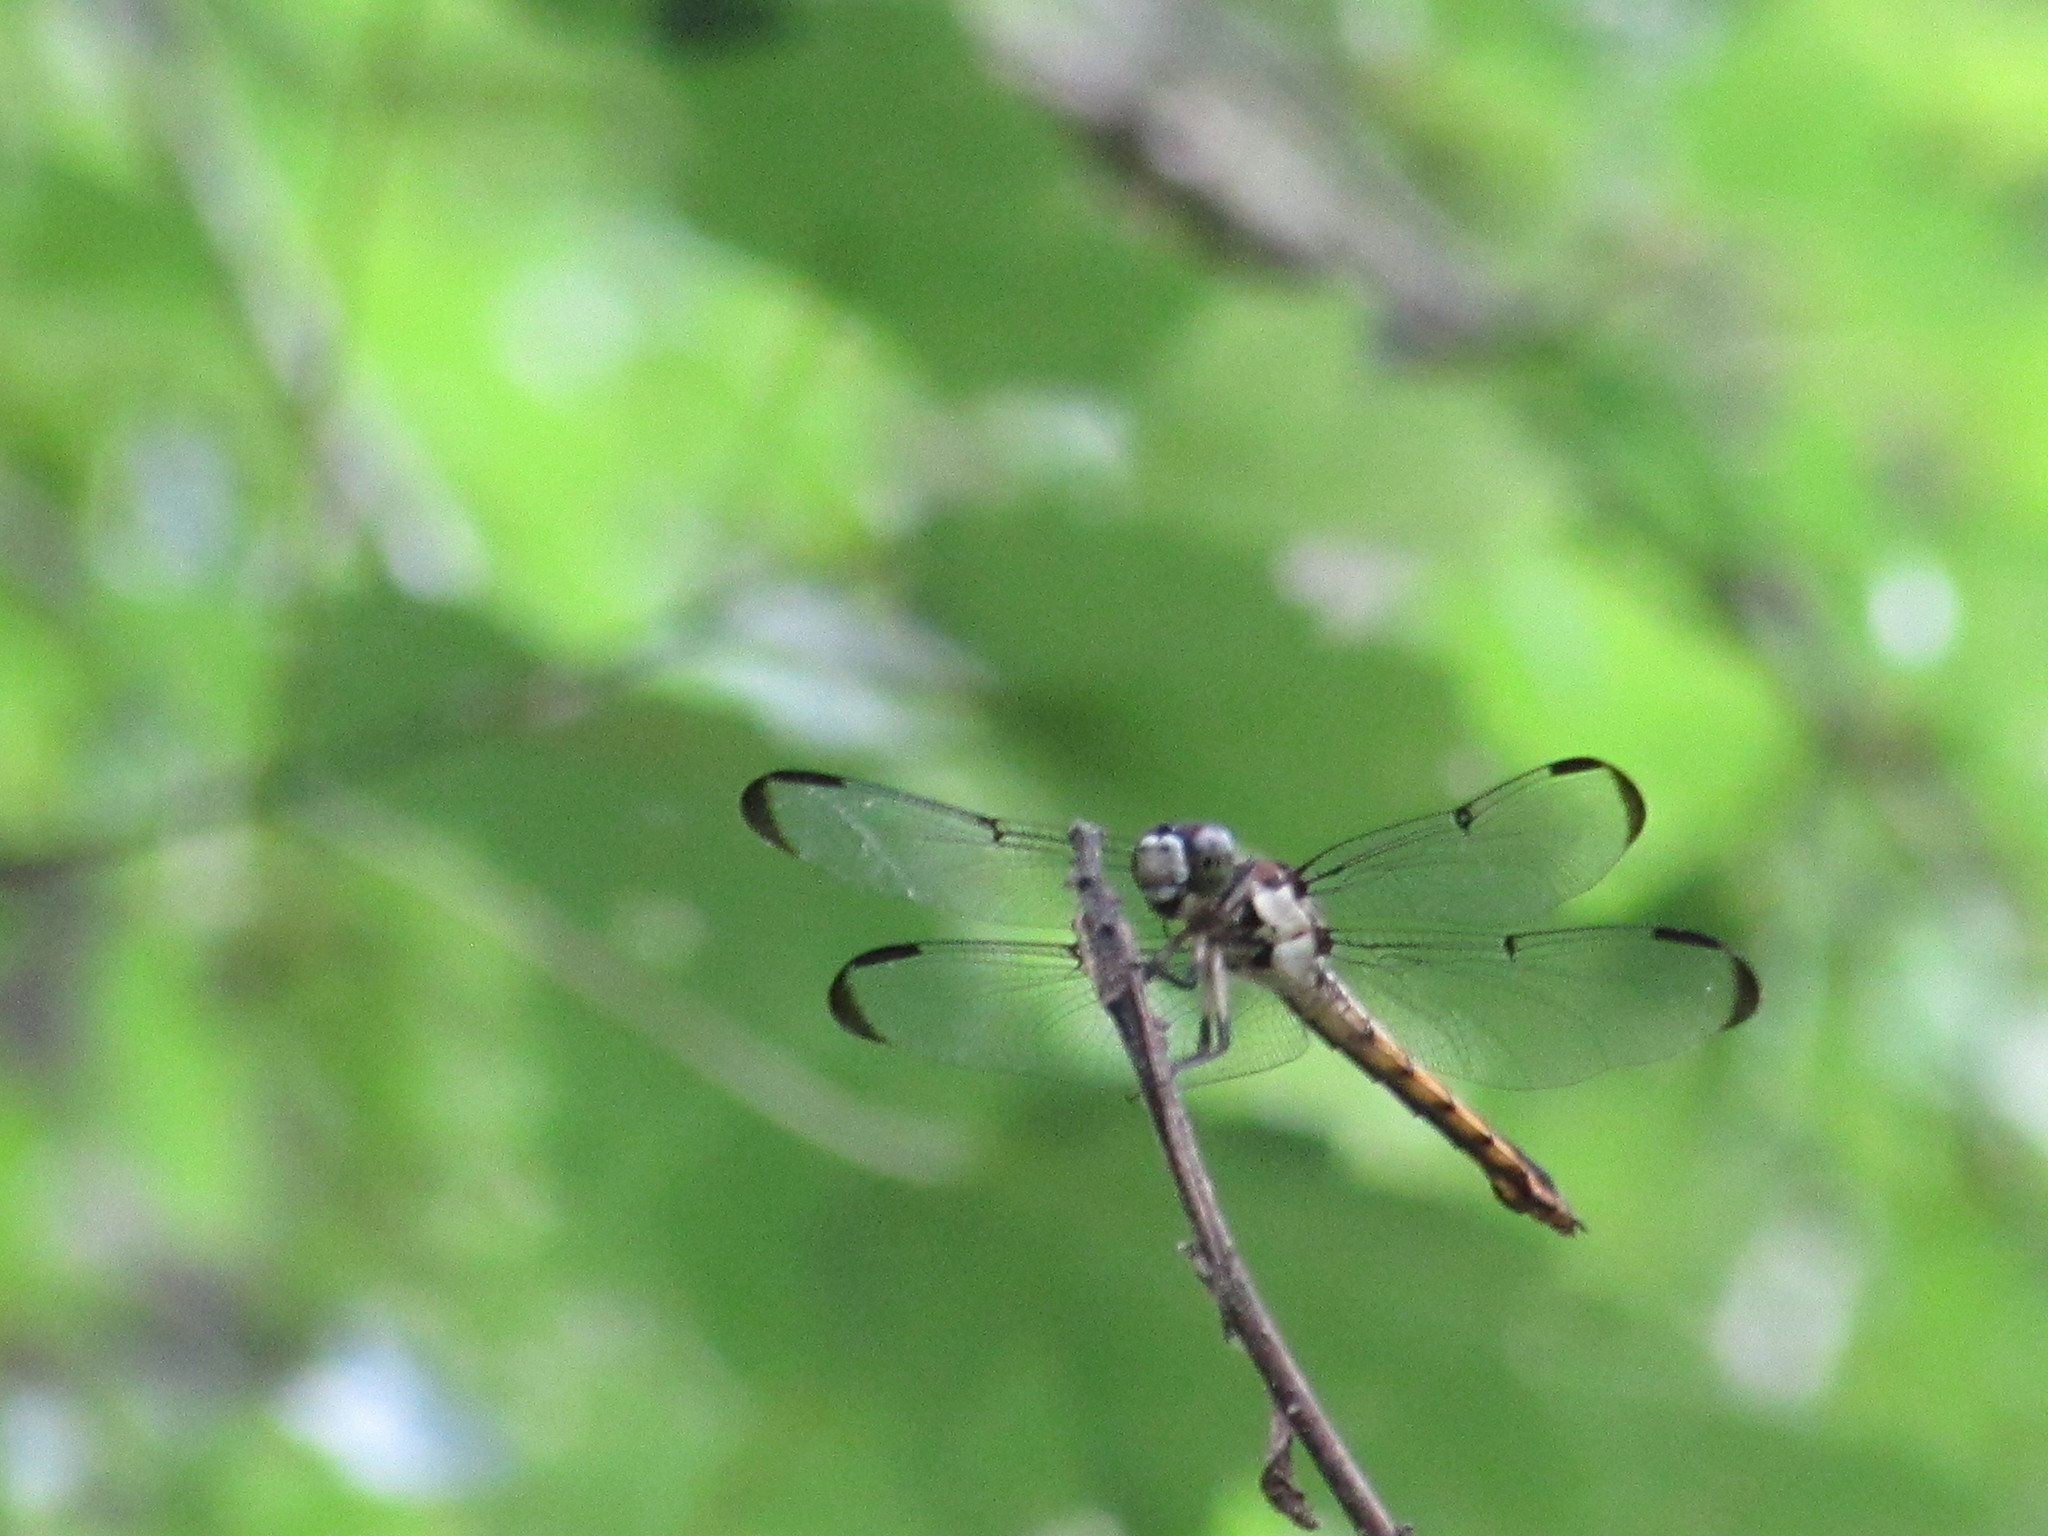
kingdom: Animalia
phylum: Arthropoda
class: Insecta
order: Odonata
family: Libellulidae
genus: Libellula
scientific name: Libellula vibrans
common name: Great blue skimmer
